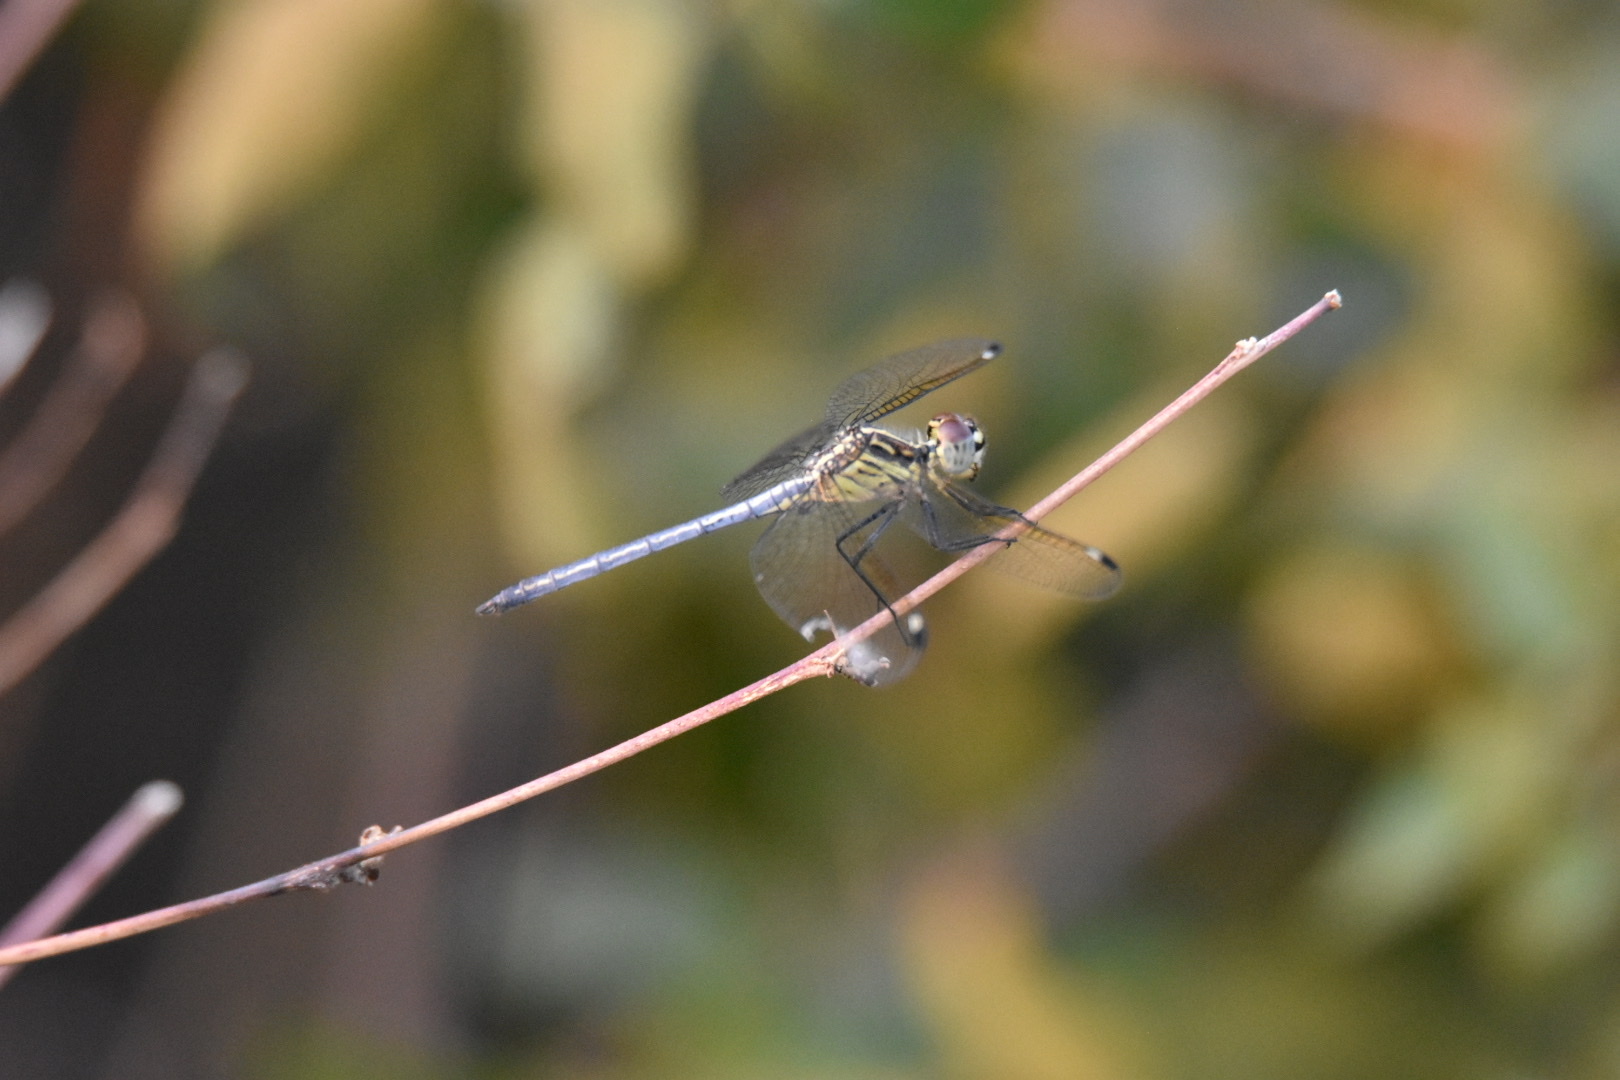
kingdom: Animalia
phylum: Arthropoda
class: Insecta
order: Odonata
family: Libellulidae
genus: Hemistigma
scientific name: Hemistigma albipunctum
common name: African pied-spot
